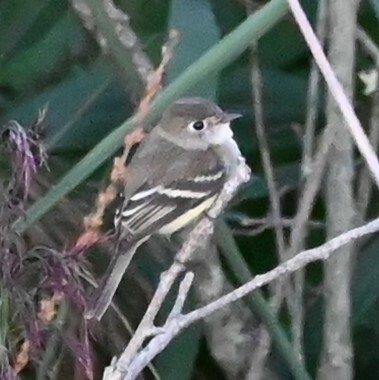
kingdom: Animalia
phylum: Chordata
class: Aves
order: Passeriformes
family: Tyrannidae
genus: Empidonax
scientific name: Empidonax minimus
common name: Least flycatcher
